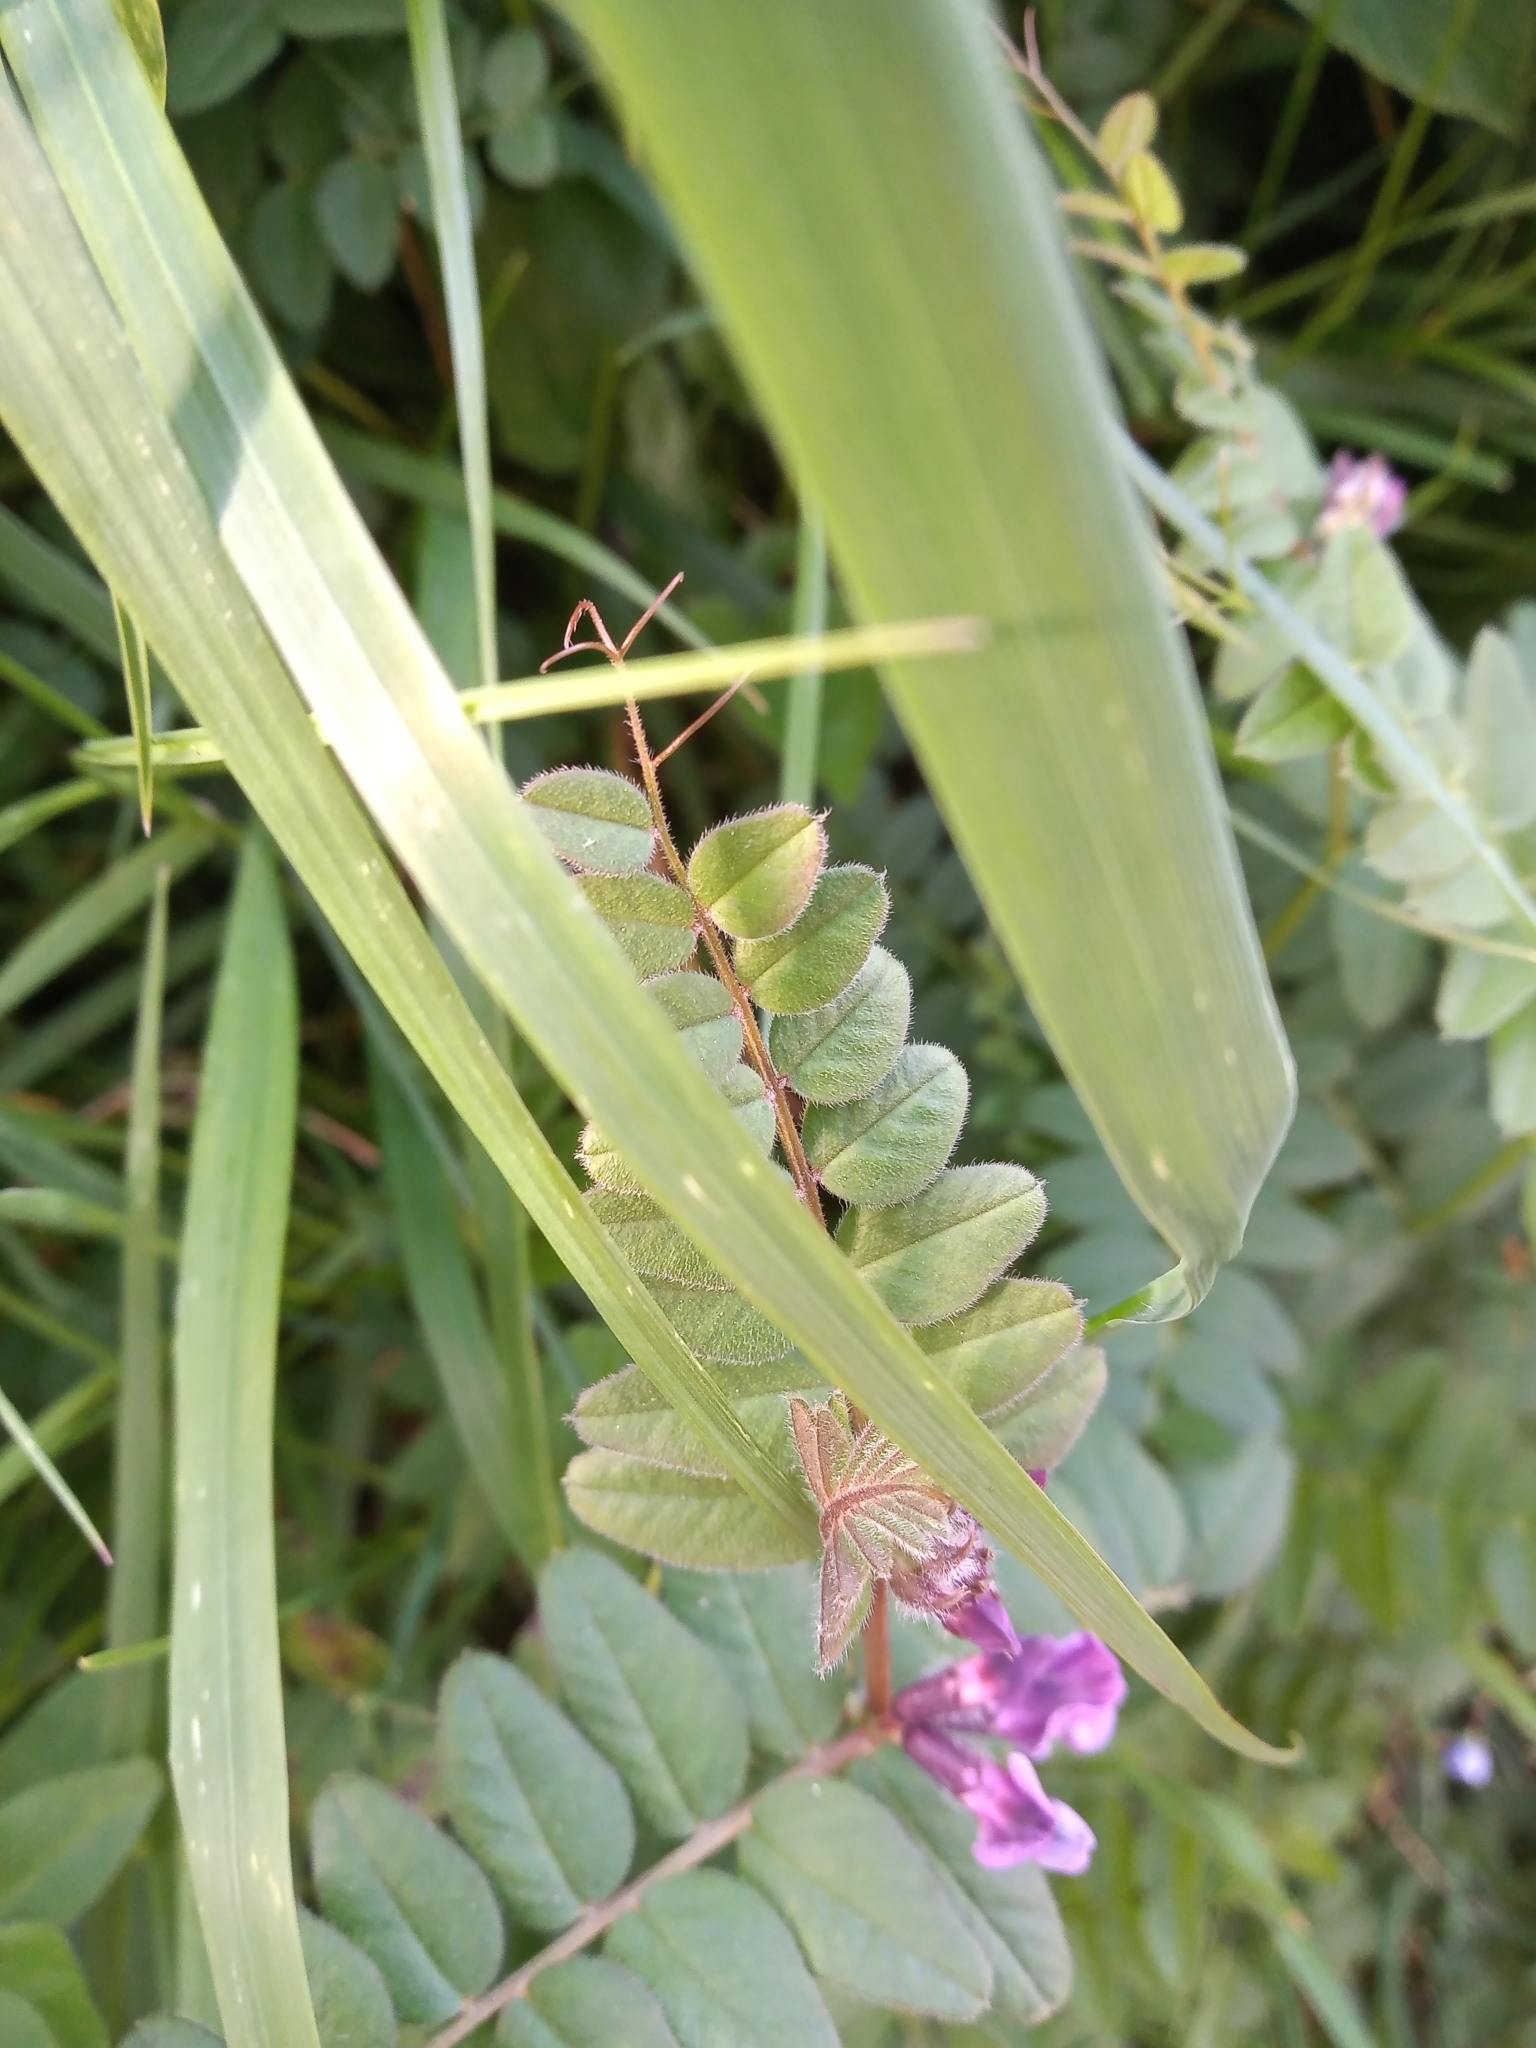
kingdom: Plantae
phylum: Tracheophyta
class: Magnoliopsida
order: Fabales
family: Fabaceae
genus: Vicia
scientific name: Vicia sepium
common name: Bush vetch
